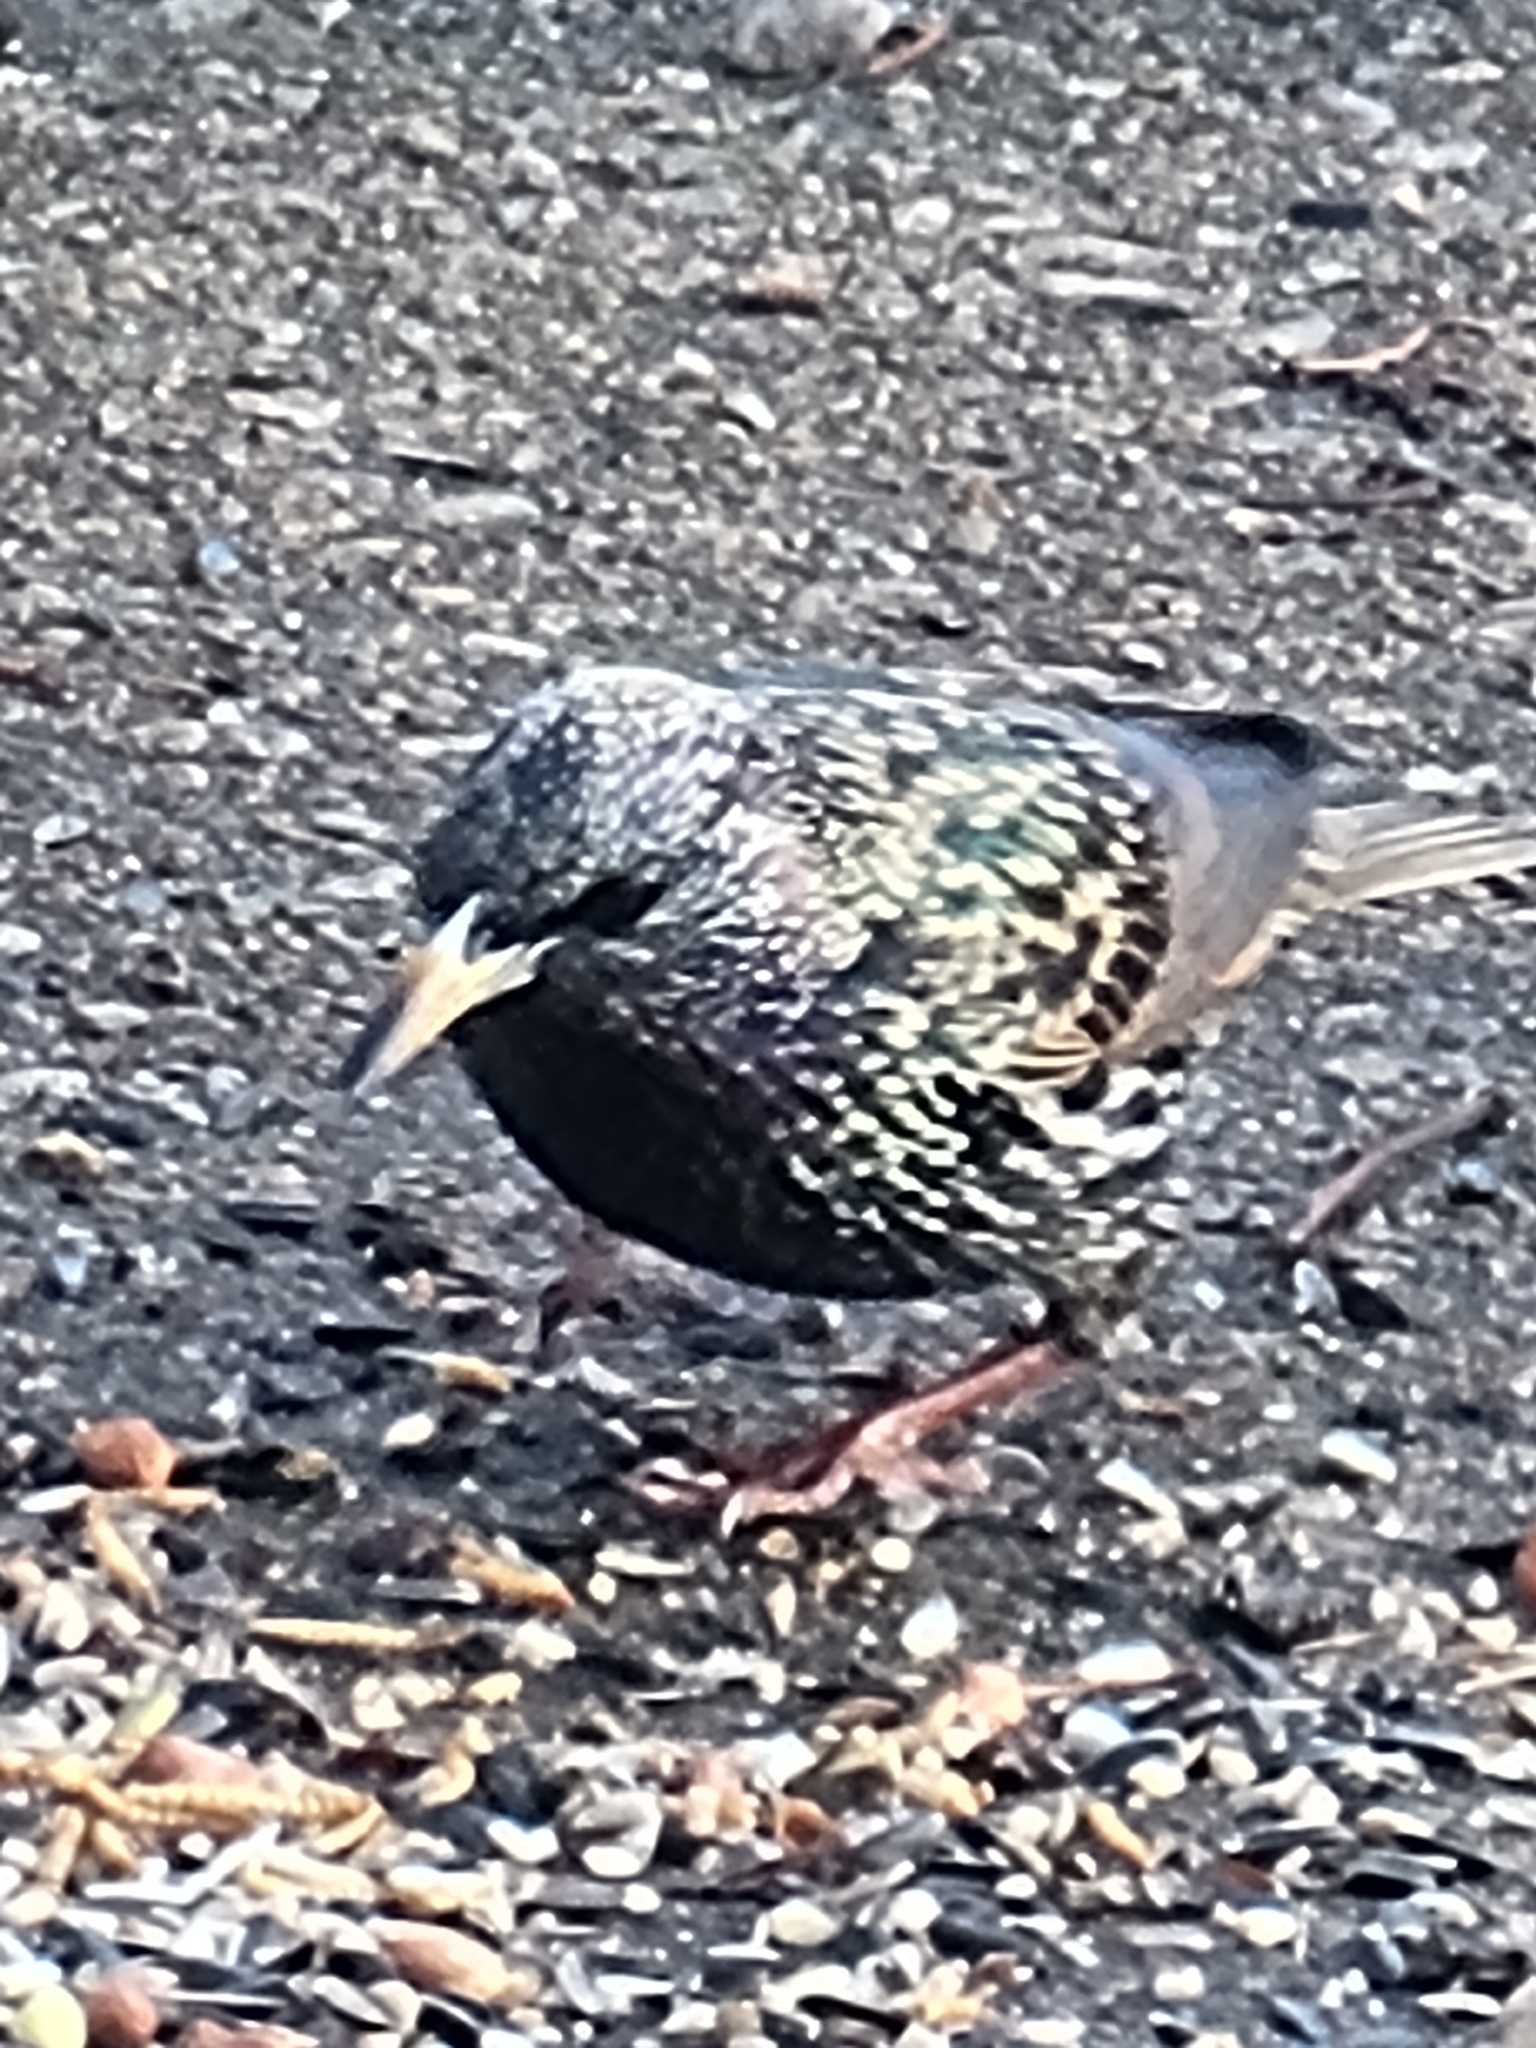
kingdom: Animalia
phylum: Chordata
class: Aves
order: Passeriformes
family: Sturnidae
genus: Sturnus
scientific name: Sturnus vulgaris
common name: Common starling
